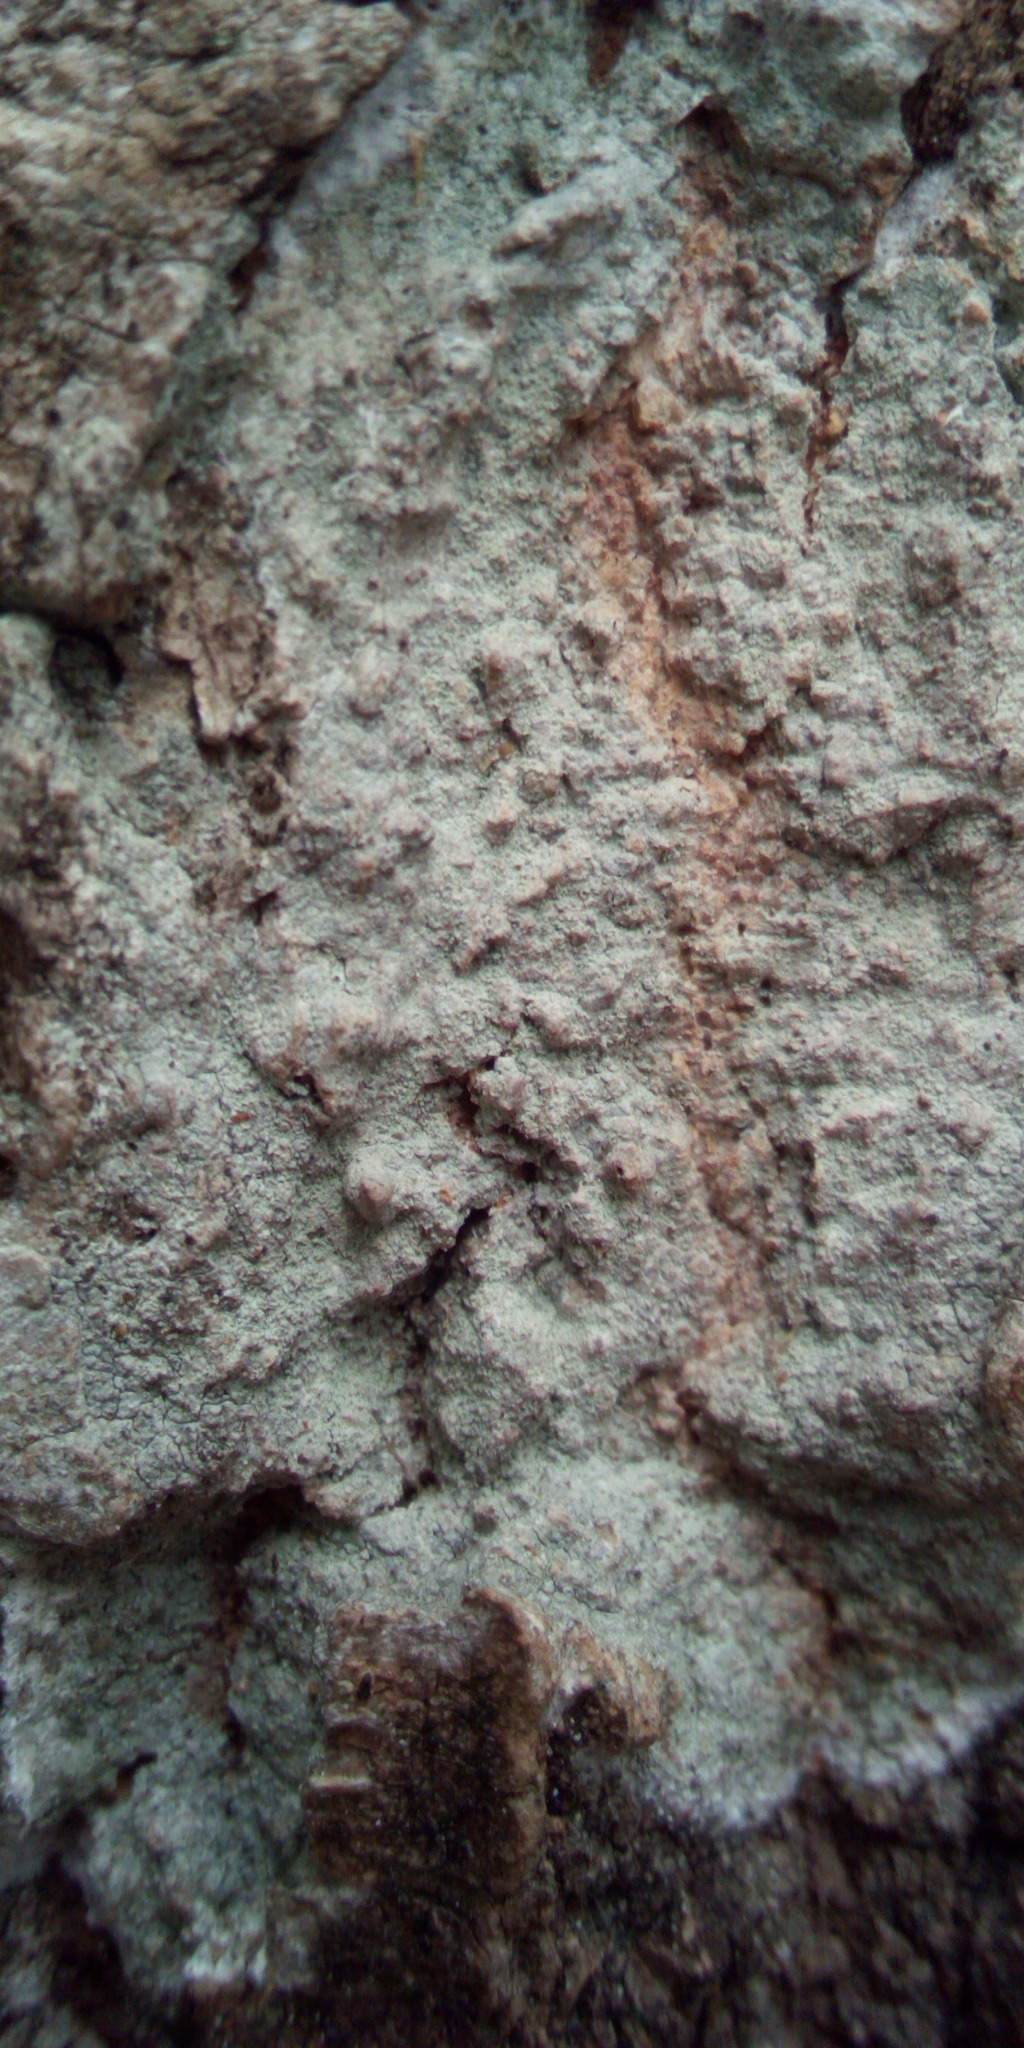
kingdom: Fungi
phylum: Ascomycota
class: Lecanoromycetes
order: Ostropales
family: Phlyctidaceae
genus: Phlyctis
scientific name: Phlyctis argena
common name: Whitewash lichen
